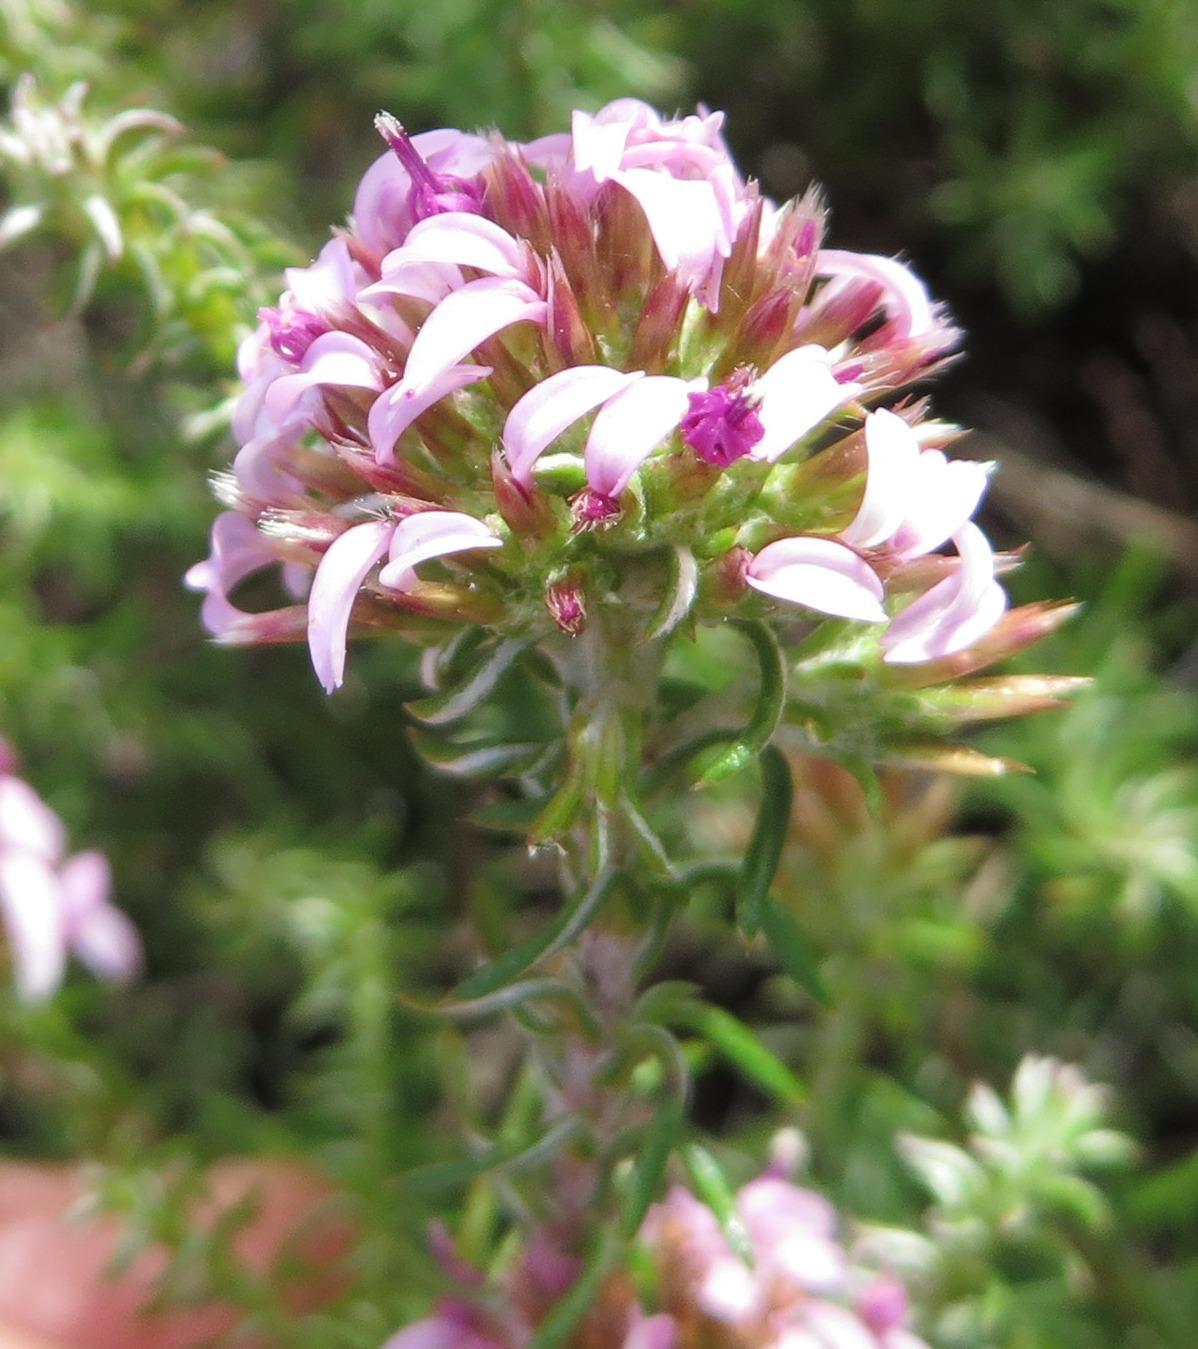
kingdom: Plantae
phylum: Tracheophyta
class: Magnoliopsida
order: Asterales
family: Asteraceae
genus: Disparago
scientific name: Disparago ericoides
